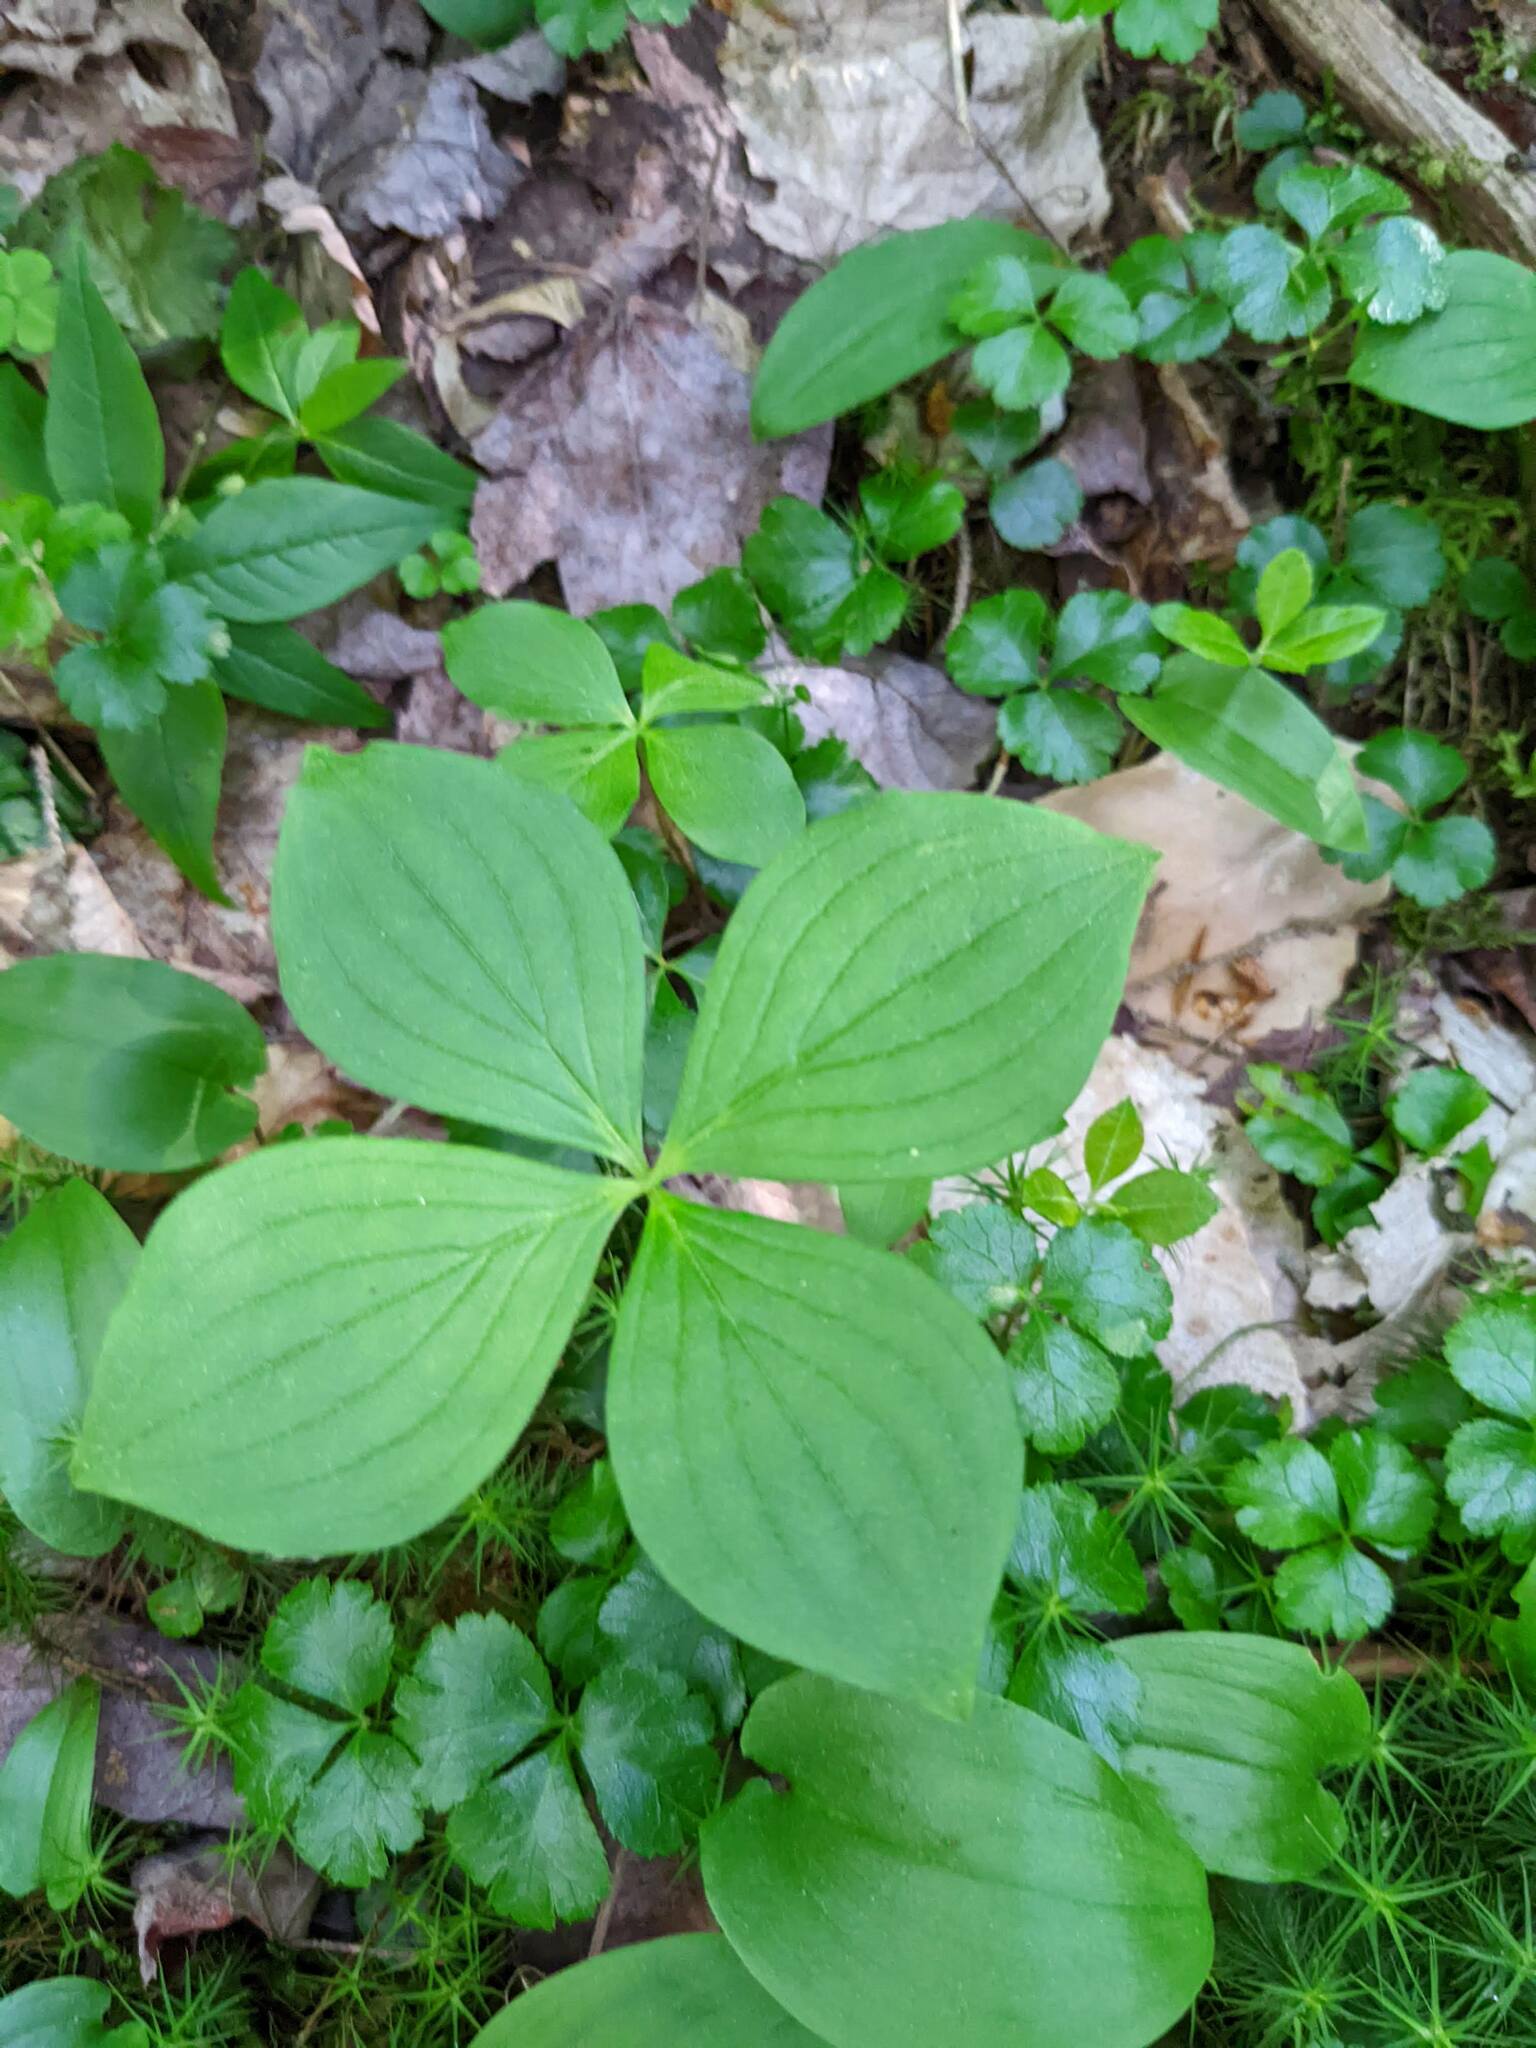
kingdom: Plantae
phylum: Tracheophyta
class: Magnoliopsida
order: Cornales
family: Cornaceae
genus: Cornus
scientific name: Cornus canadensis
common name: Creeping dogwood
